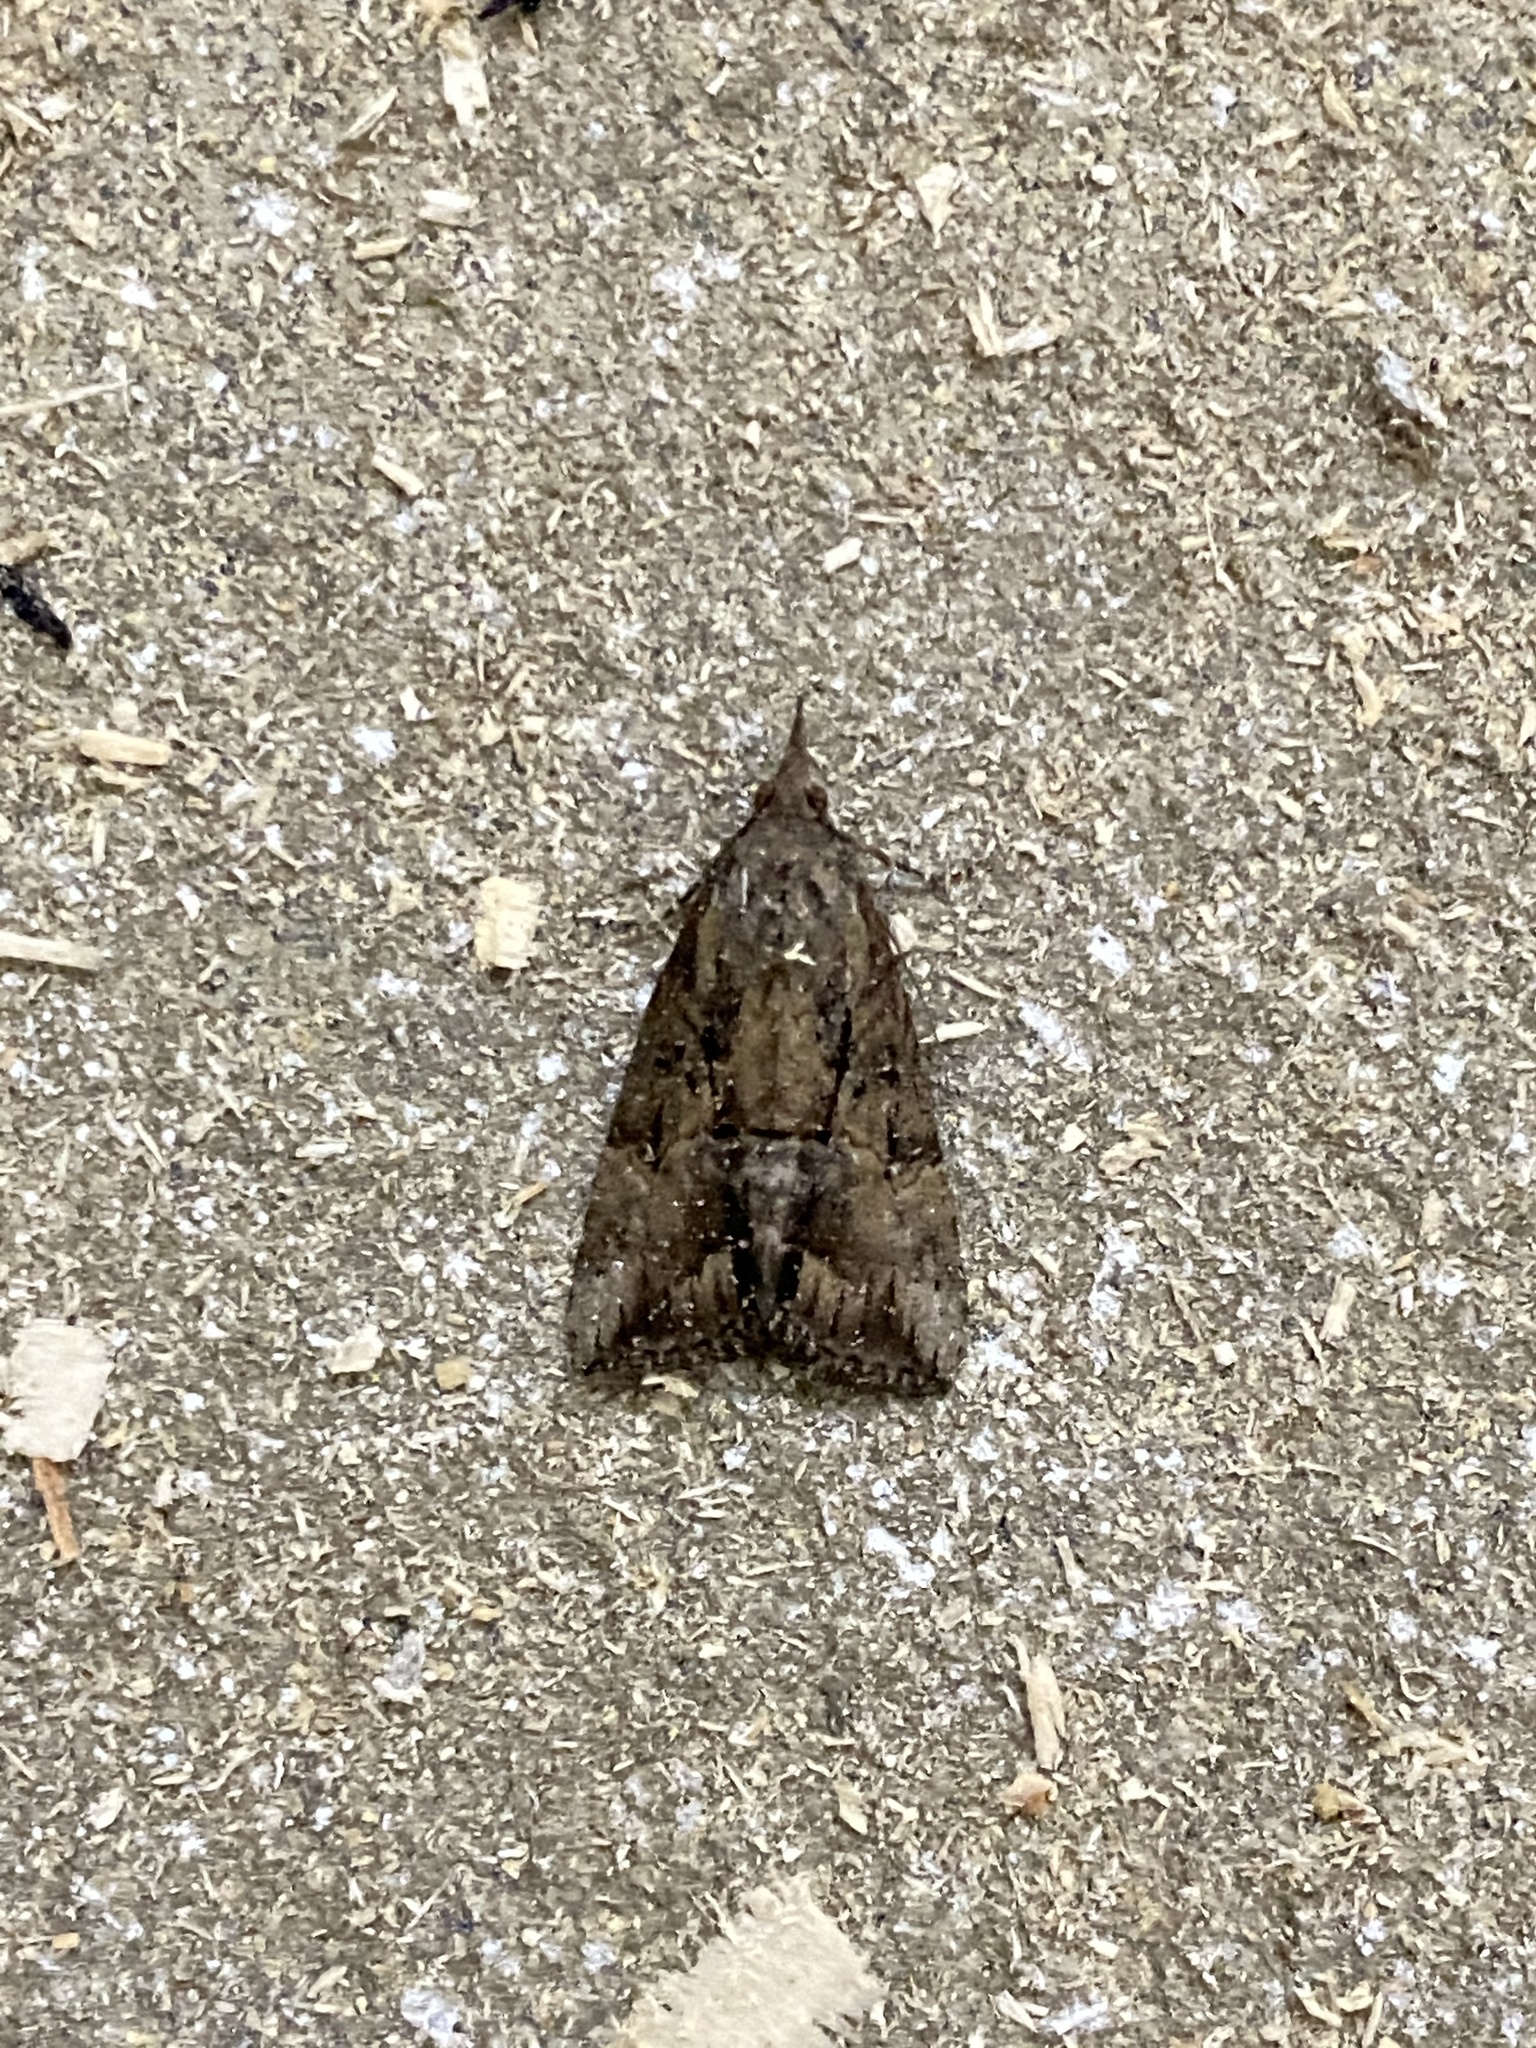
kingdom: Animalia
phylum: Arthropoda
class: Insecta
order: Lepidoptera
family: Erebidae
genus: Hypena
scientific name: Hypena scabra
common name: Green cloverworm
